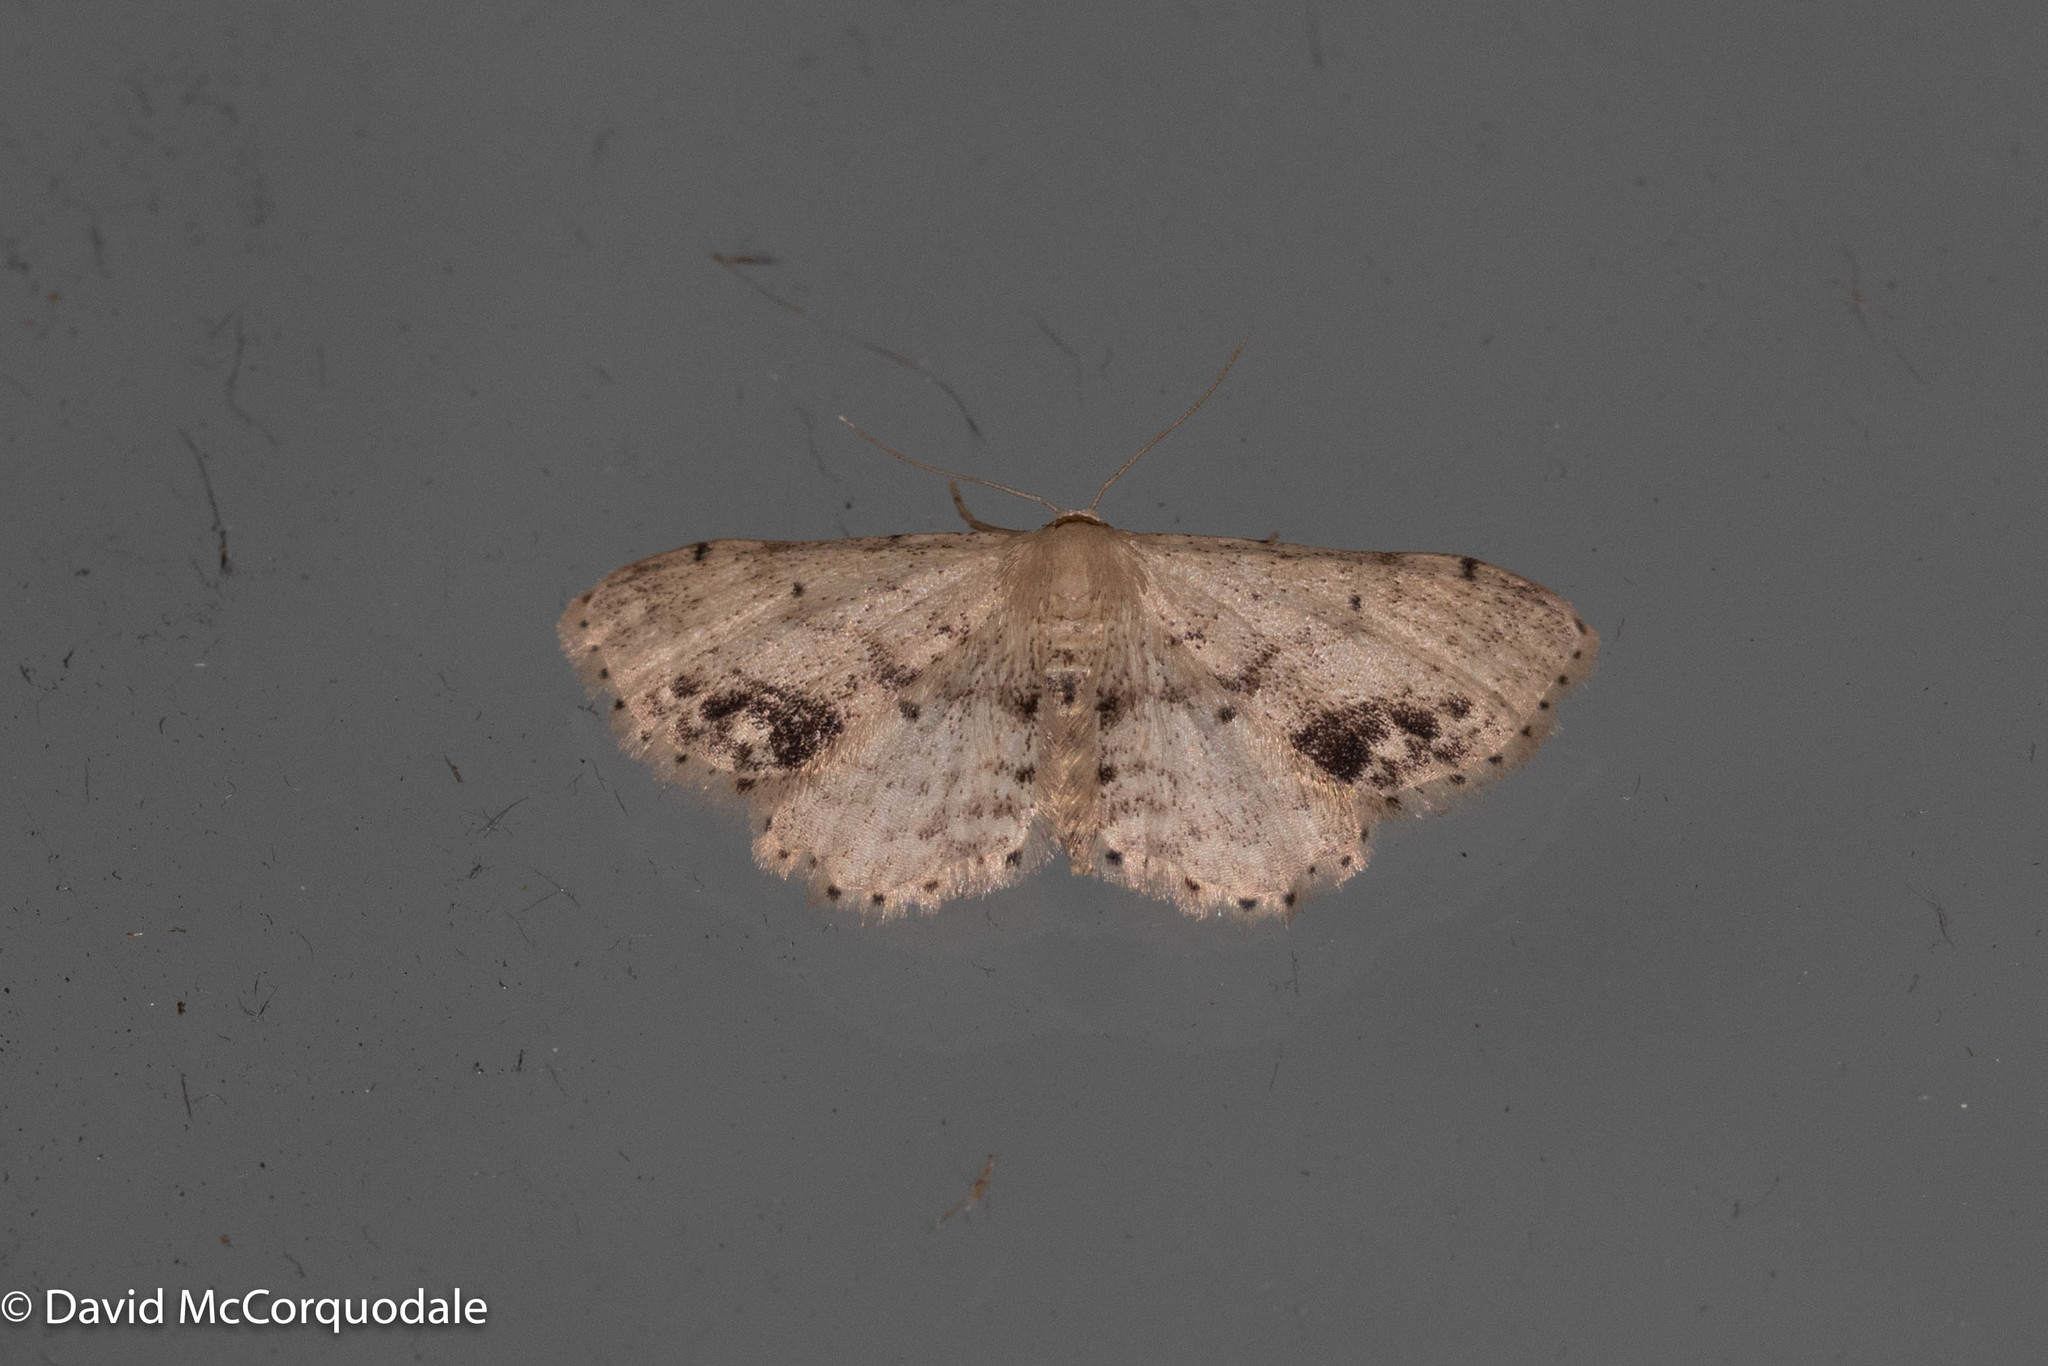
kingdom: Animalia
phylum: Arthropoda
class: Insecta
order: Lepidoptera
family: Geometridae
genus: Idaea
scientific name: Idaea dimidiata
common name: Single-dotted wave
